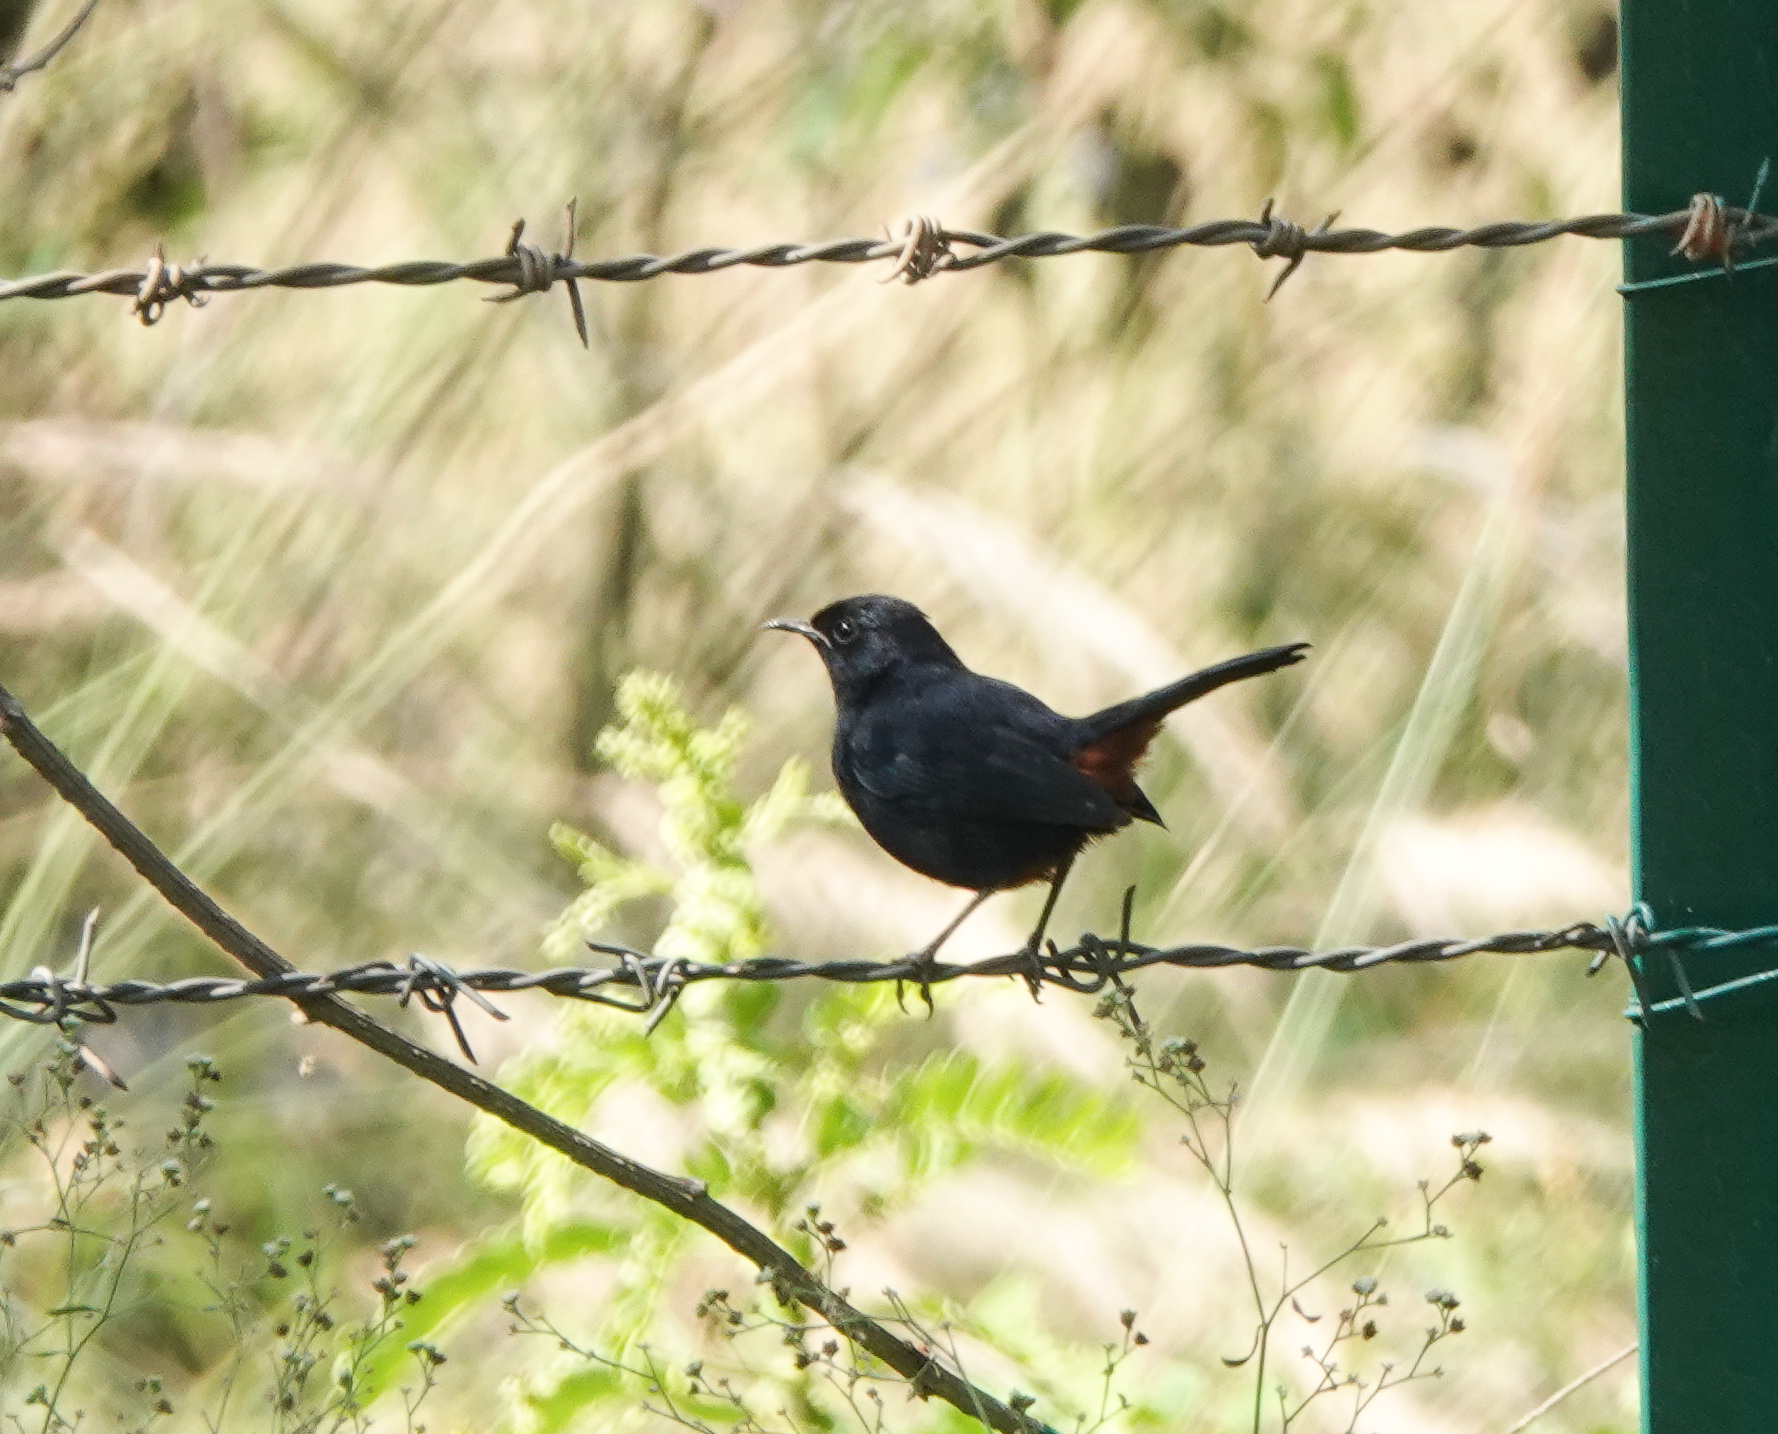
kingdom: Animalia
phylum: Chordata
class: Aves
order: Passeriformes
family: Muscicapidae
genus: Saxicoloides
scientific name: Saxicoloides fulicatus
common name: Indian robin
